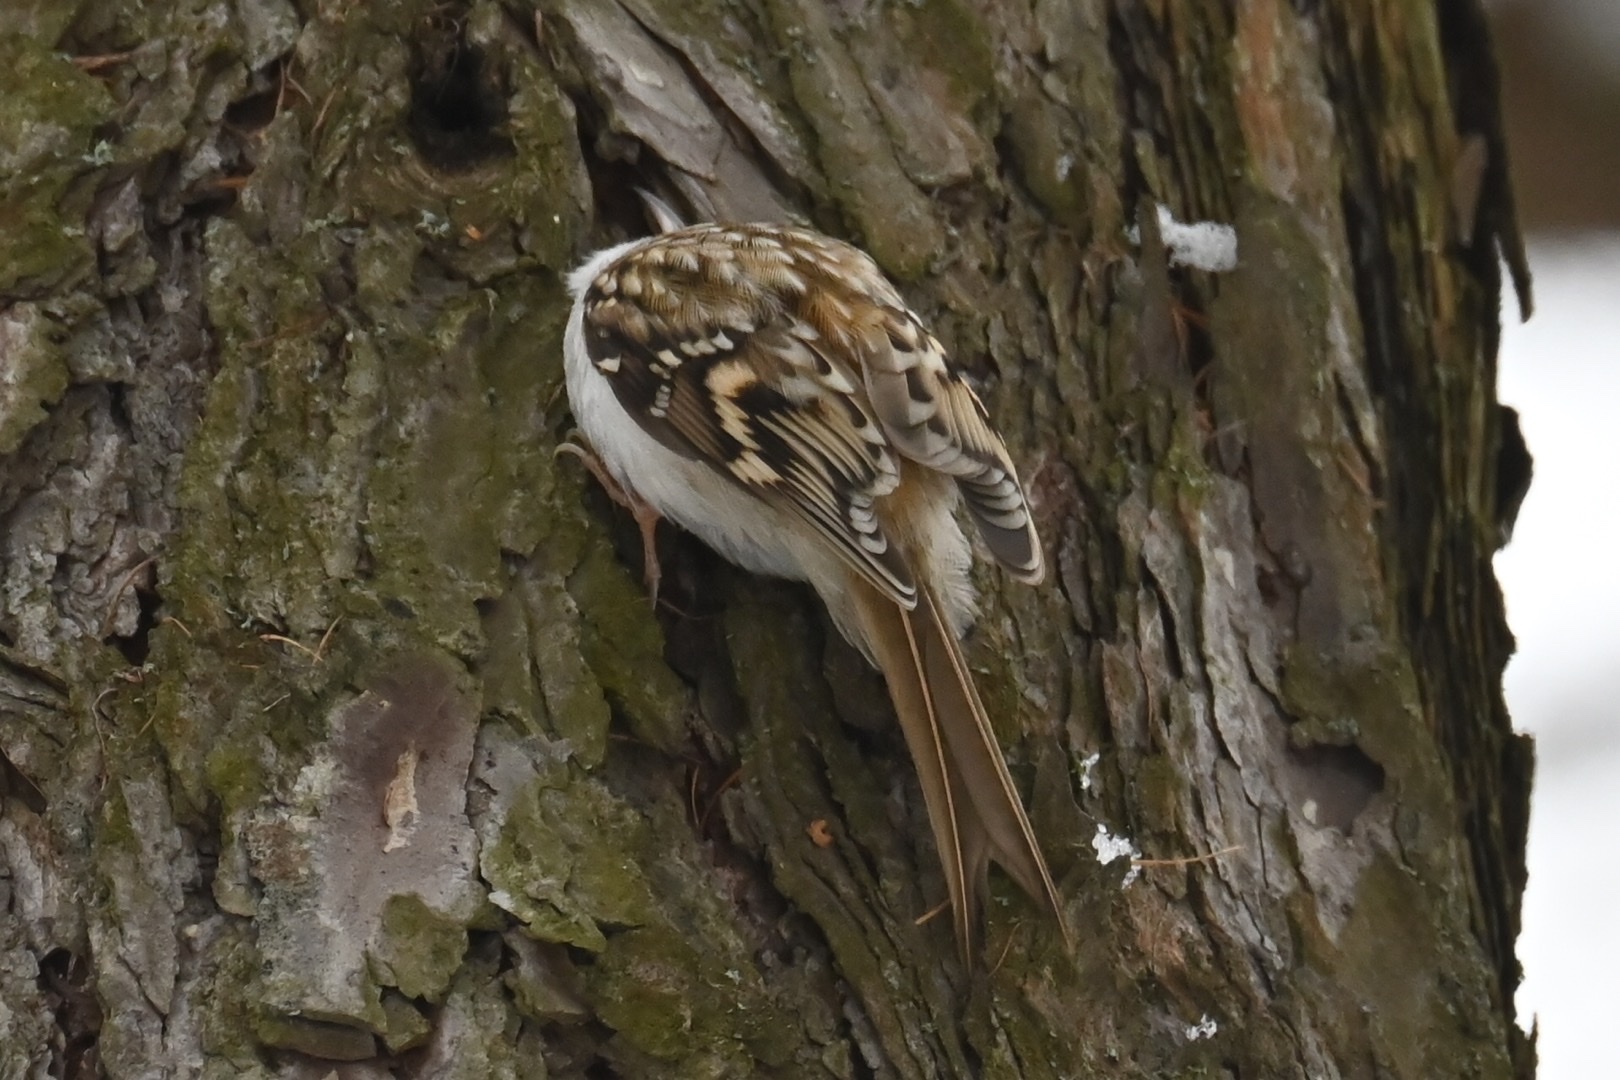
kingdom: Animalia
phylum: Chordata
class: Aves
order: Passeriformes
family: Certhiidae
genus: Certhia
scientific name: Certhia familiaris
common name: Eurasian treecreeper
